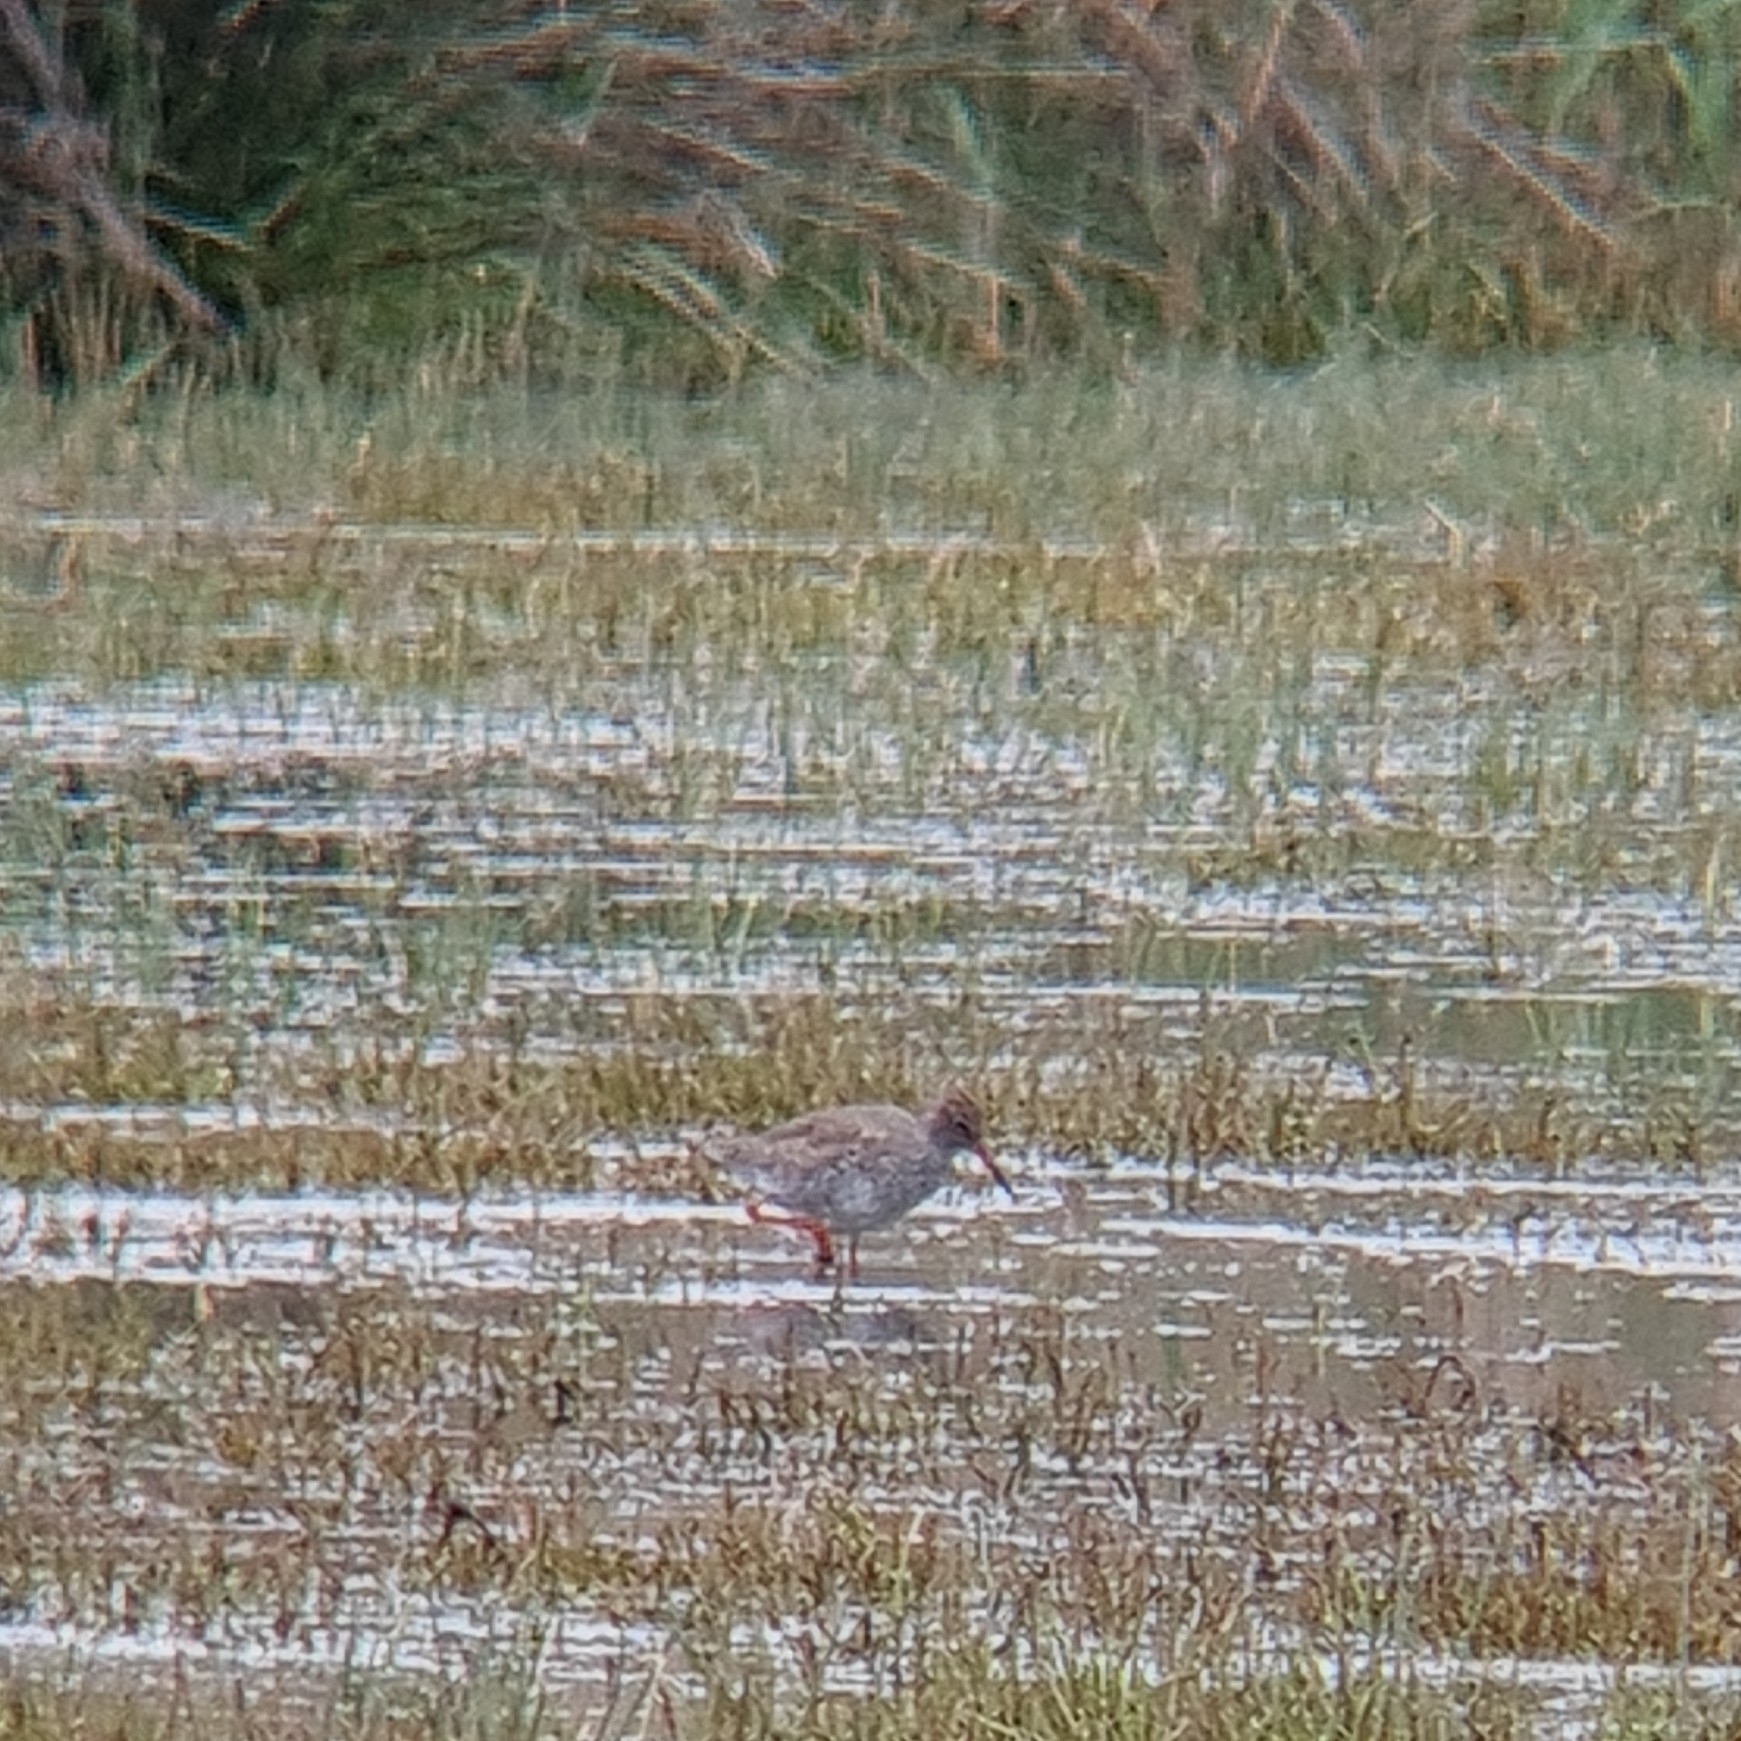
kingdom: Animalia
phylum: Chordata
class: Aves
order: Charadriiformes
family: Scolopacidae
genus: Tringa
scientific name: Tringa totanus
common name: Common redshank
